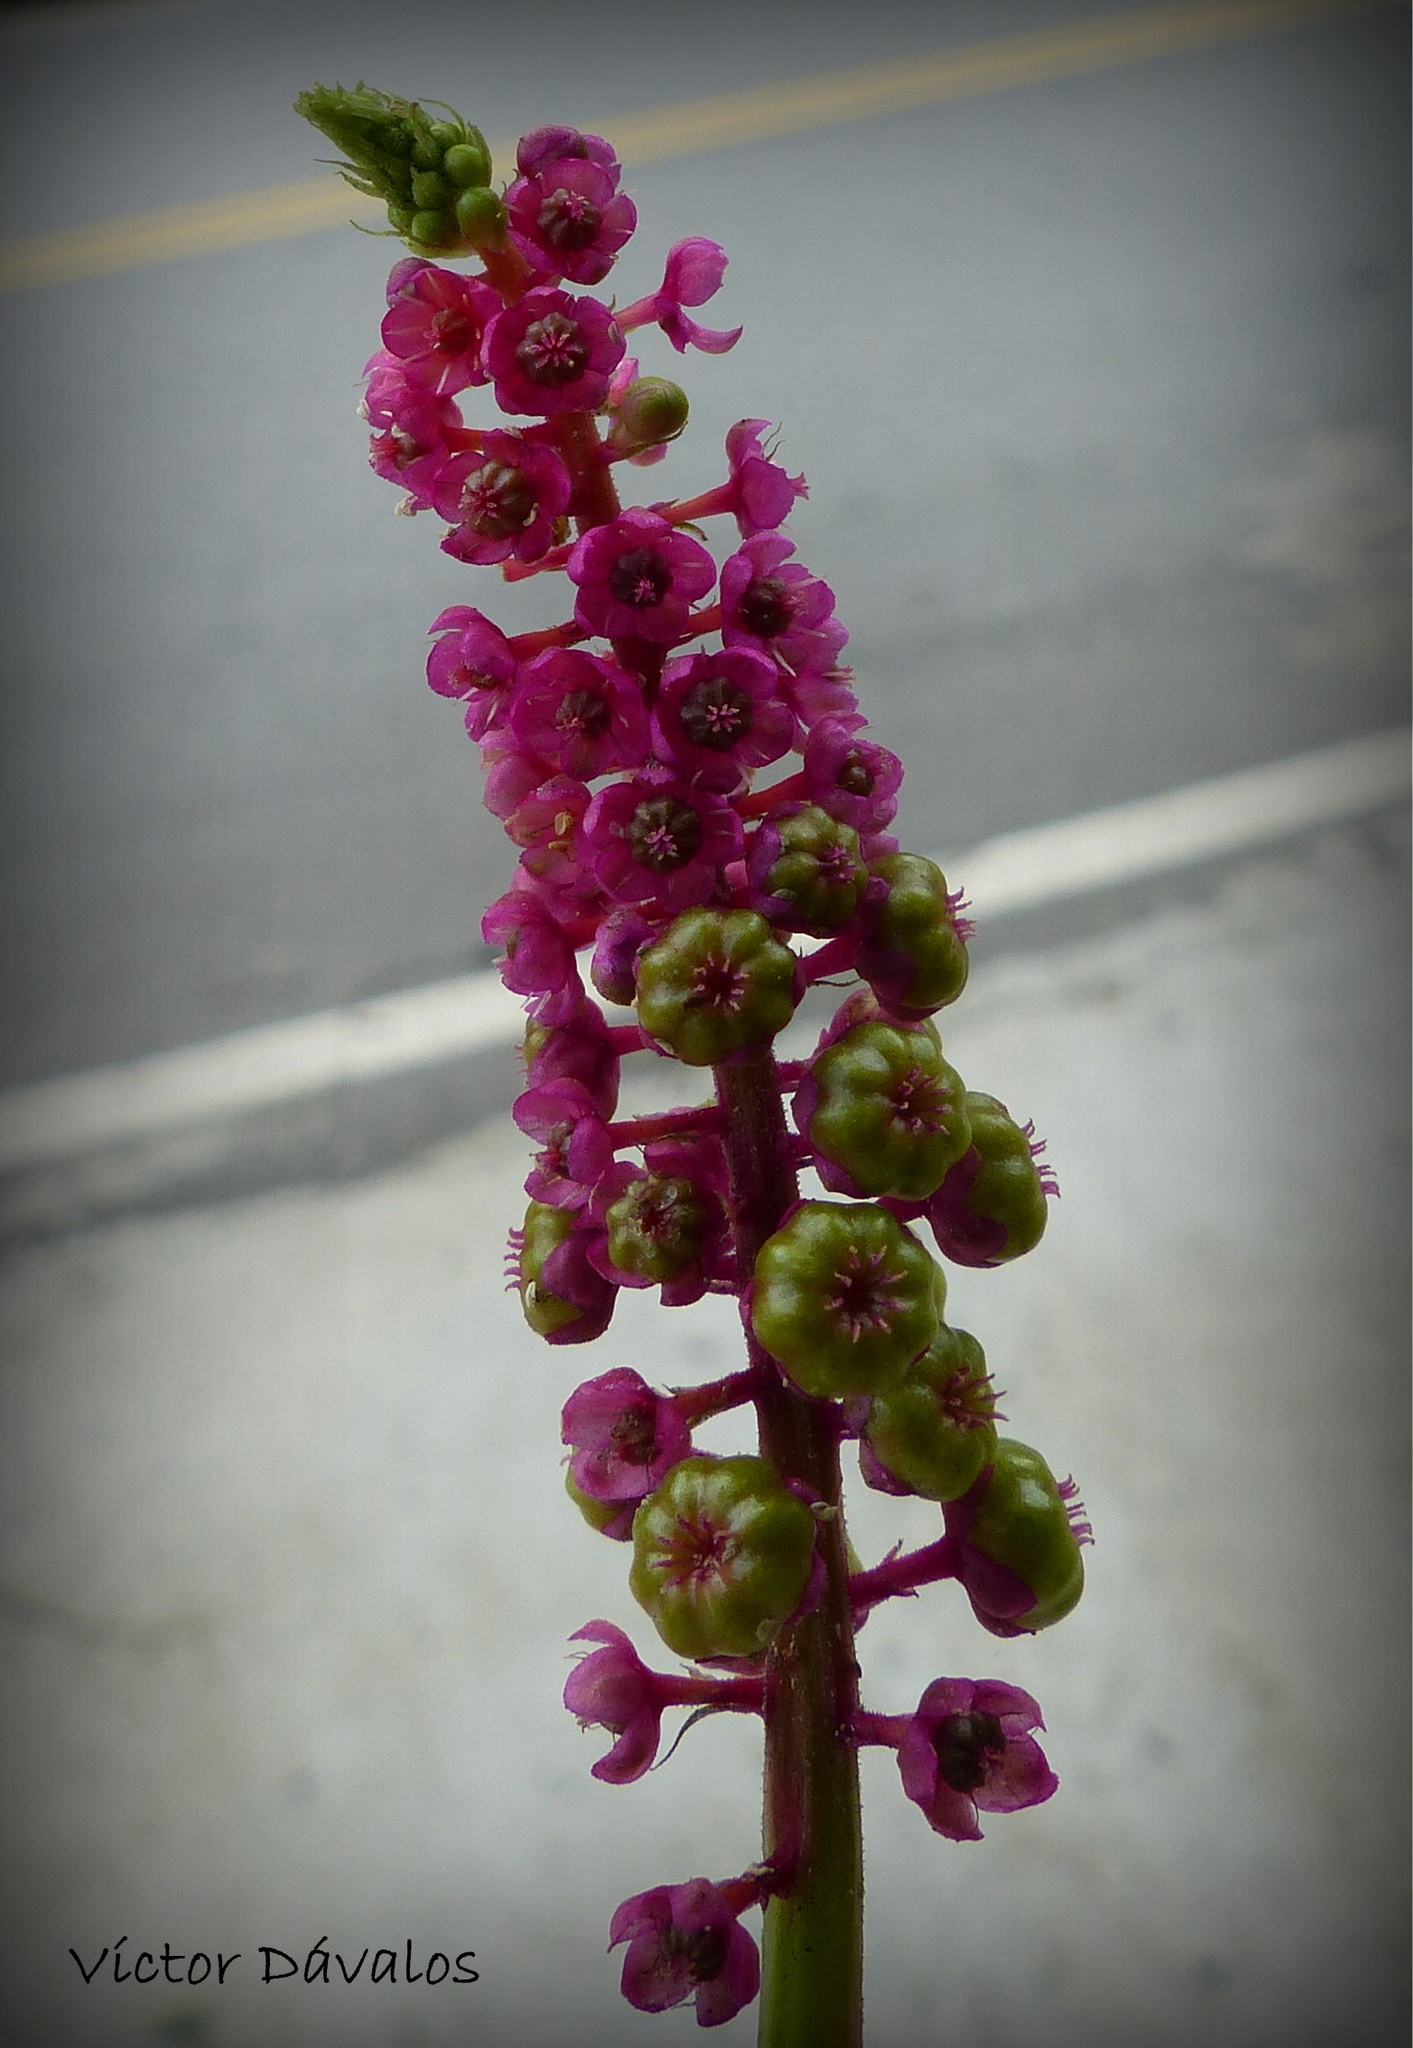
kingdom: Plantae
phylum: Tracheophyta
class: Magnoliopsida
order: Caryophyllales
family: Phytolaccaceae
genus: Phytolacca
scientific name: Phytolacca bogotensis
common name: Southern pokeweed
